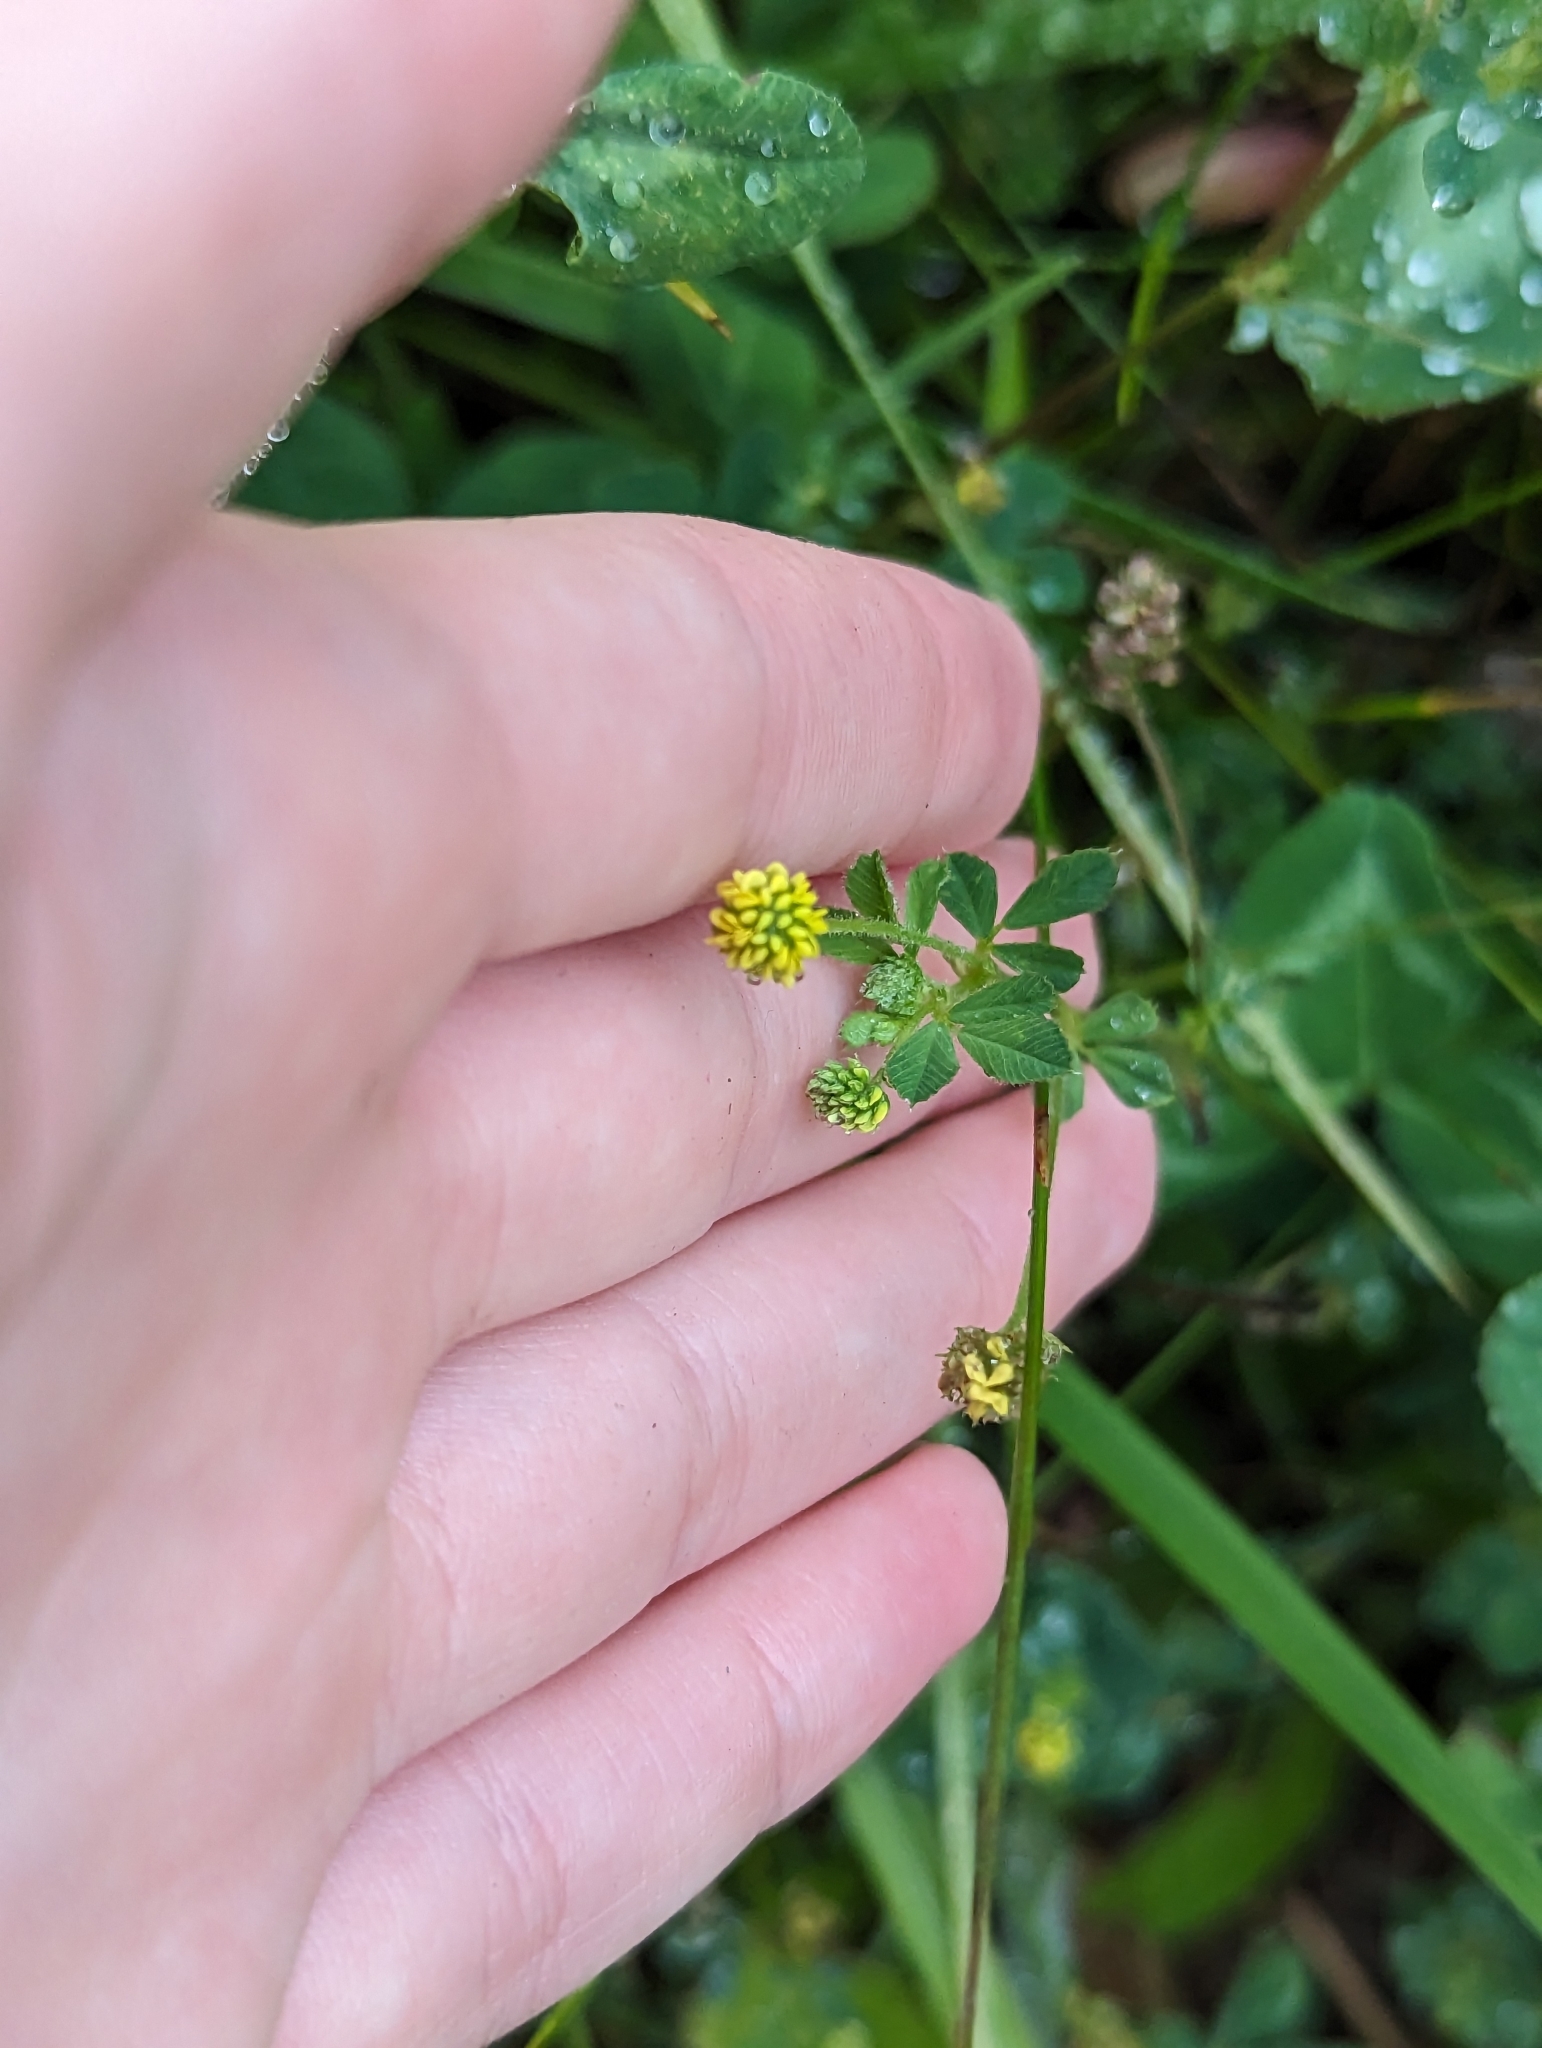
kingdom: Plantae
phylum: Tracheophyta
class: Magnoliopsida
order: Fabales
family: Fabaceae
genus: Medicago
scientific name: Medicago lupulina
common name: Black medick
